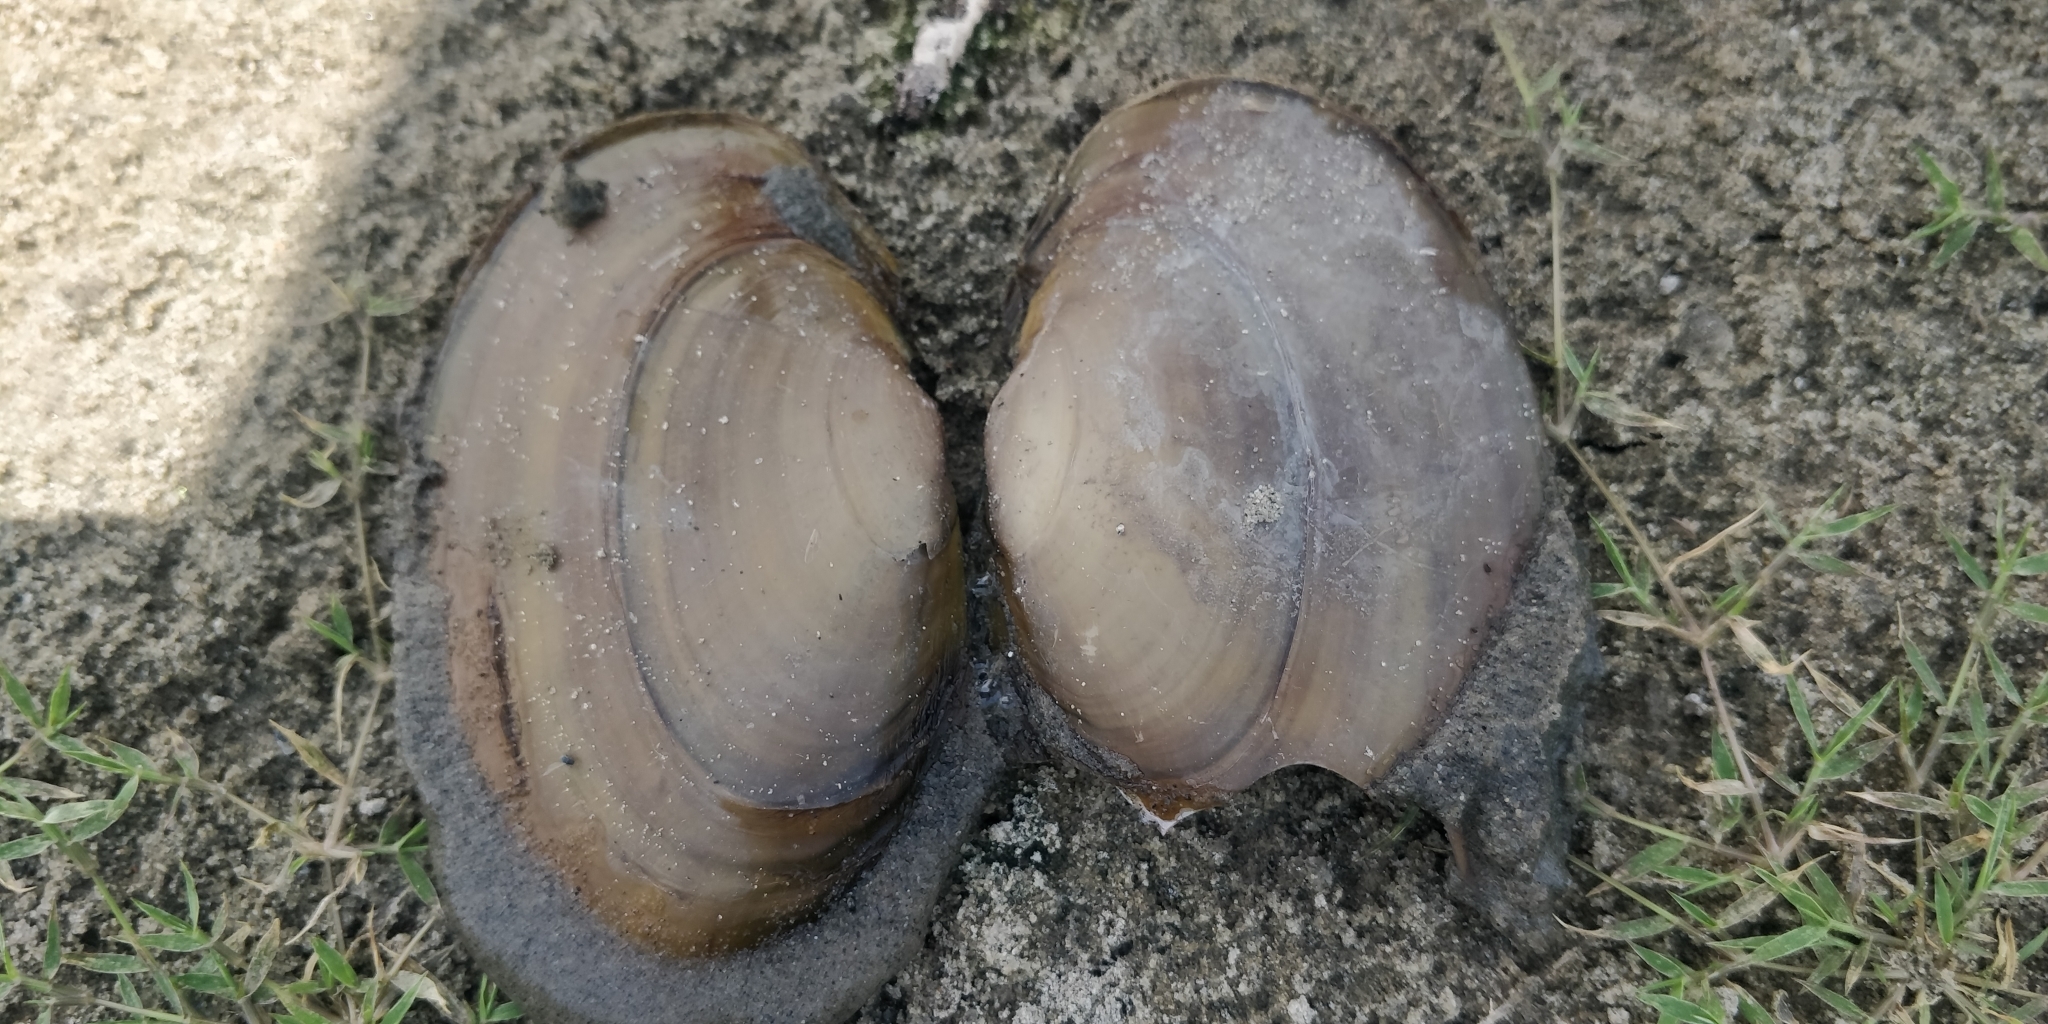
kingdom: Animalia
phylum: Mollusca
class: Bivalvia
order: Unionida
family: Unionidae
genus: Potamilus
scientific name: Potamilus ohiensis
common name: Pink papershell
